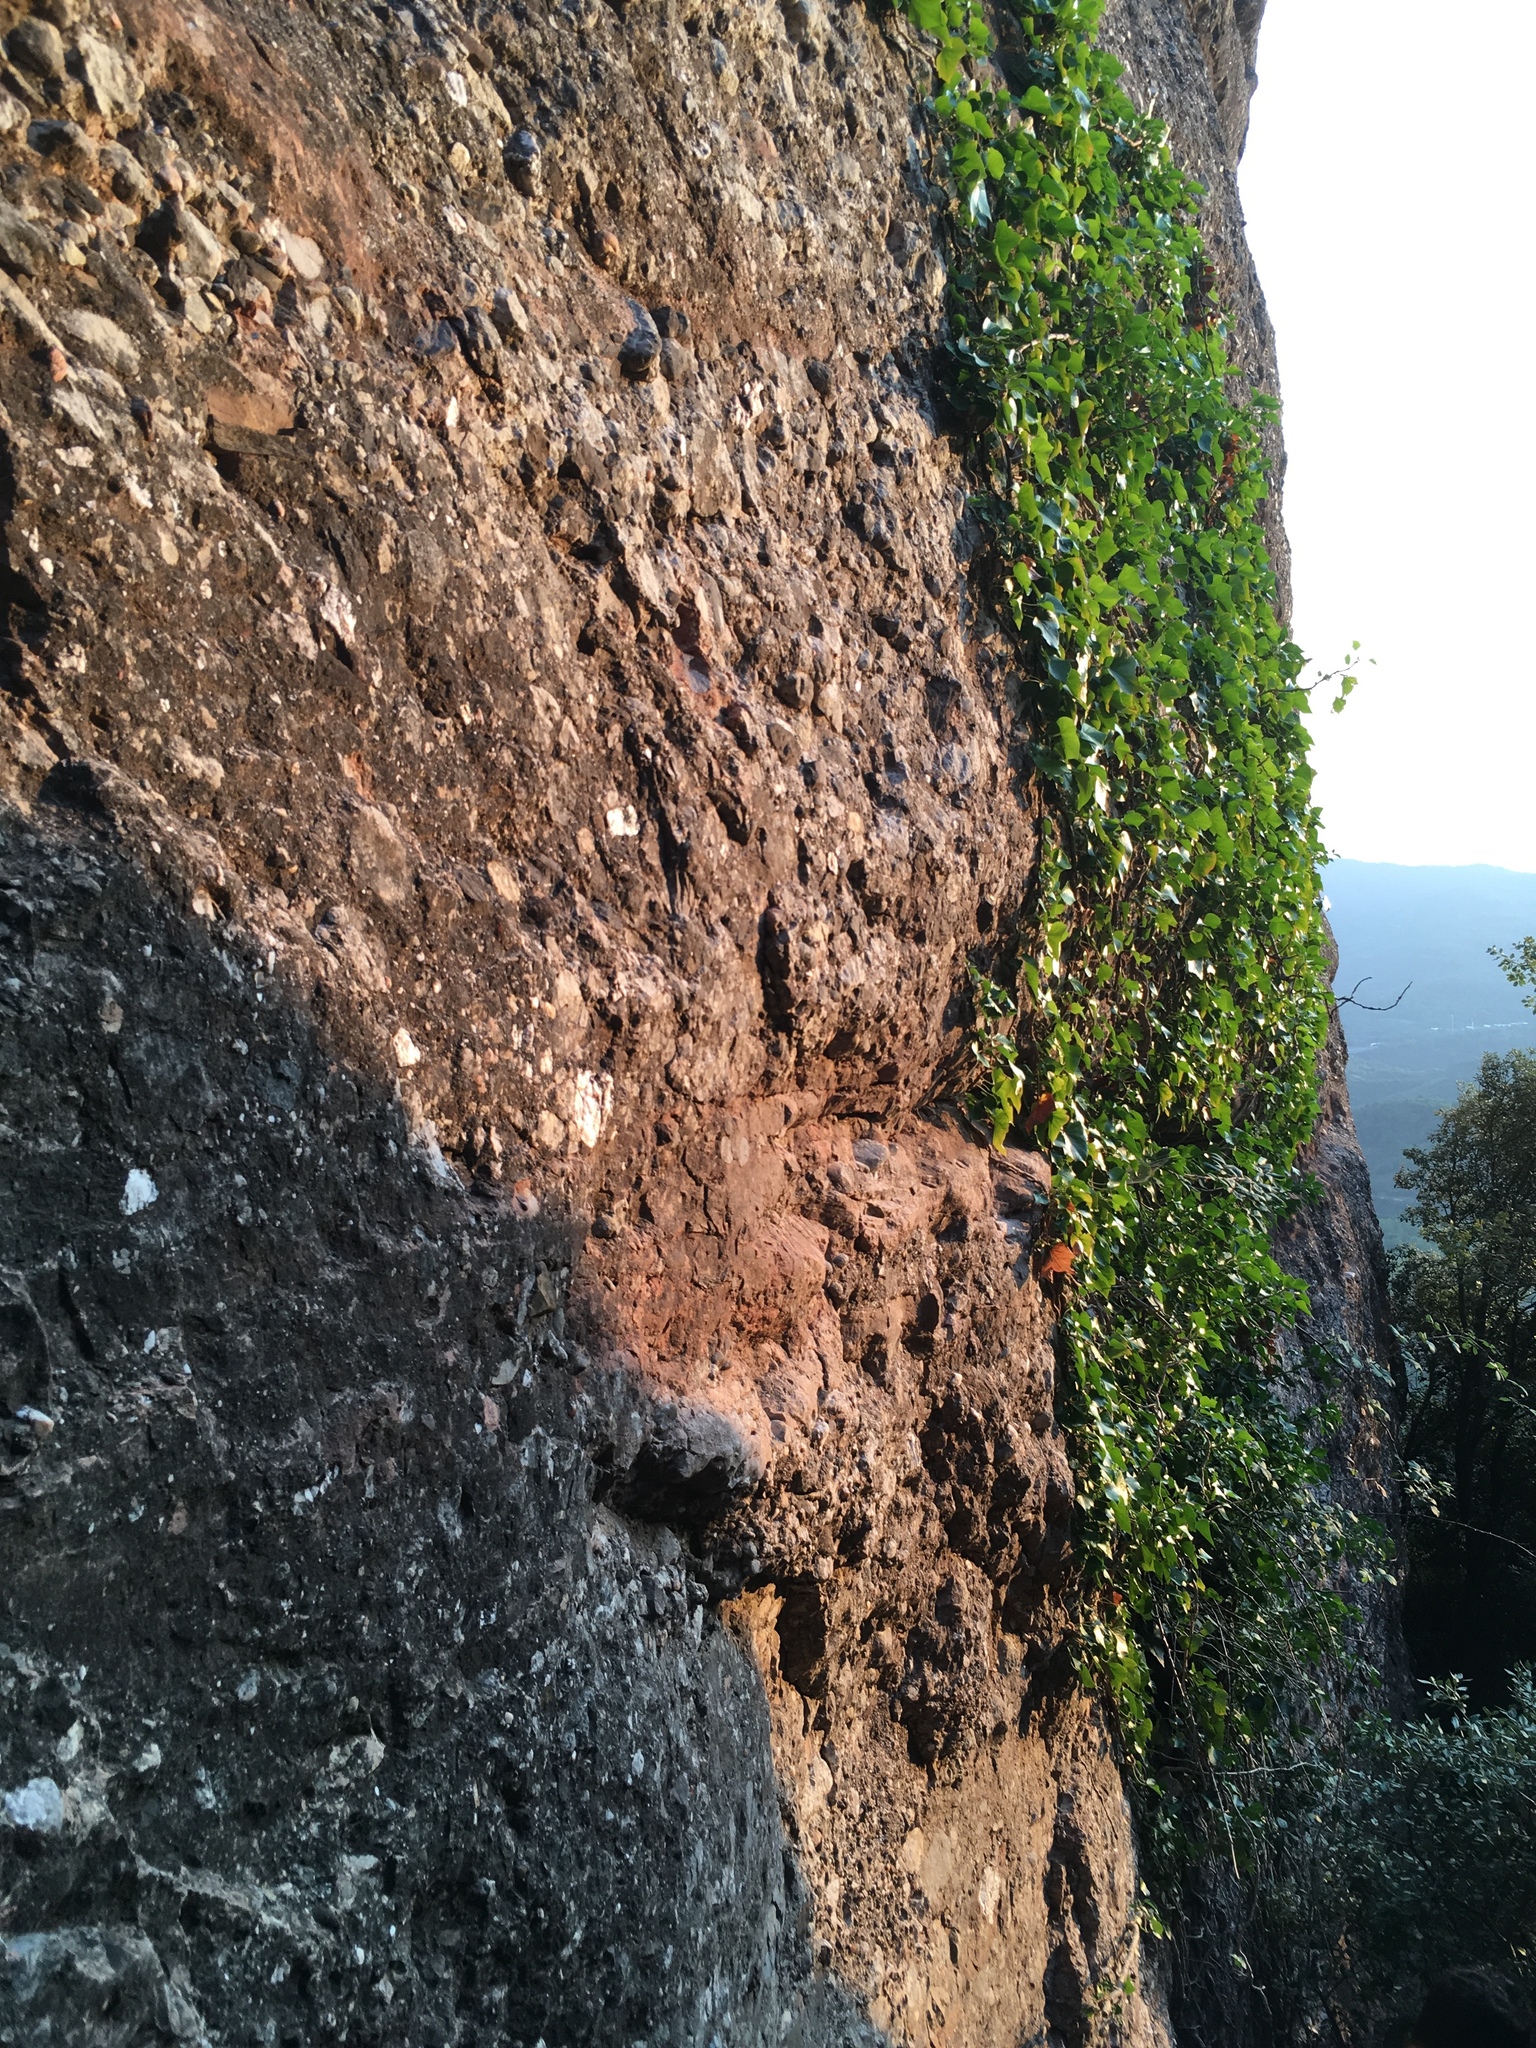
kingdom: Plantae
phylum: Tracheophyta
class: Magnoliopsida
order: Apiales
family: Araliaceae
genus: Hedera
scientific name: Hedera helix
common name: Ivy
